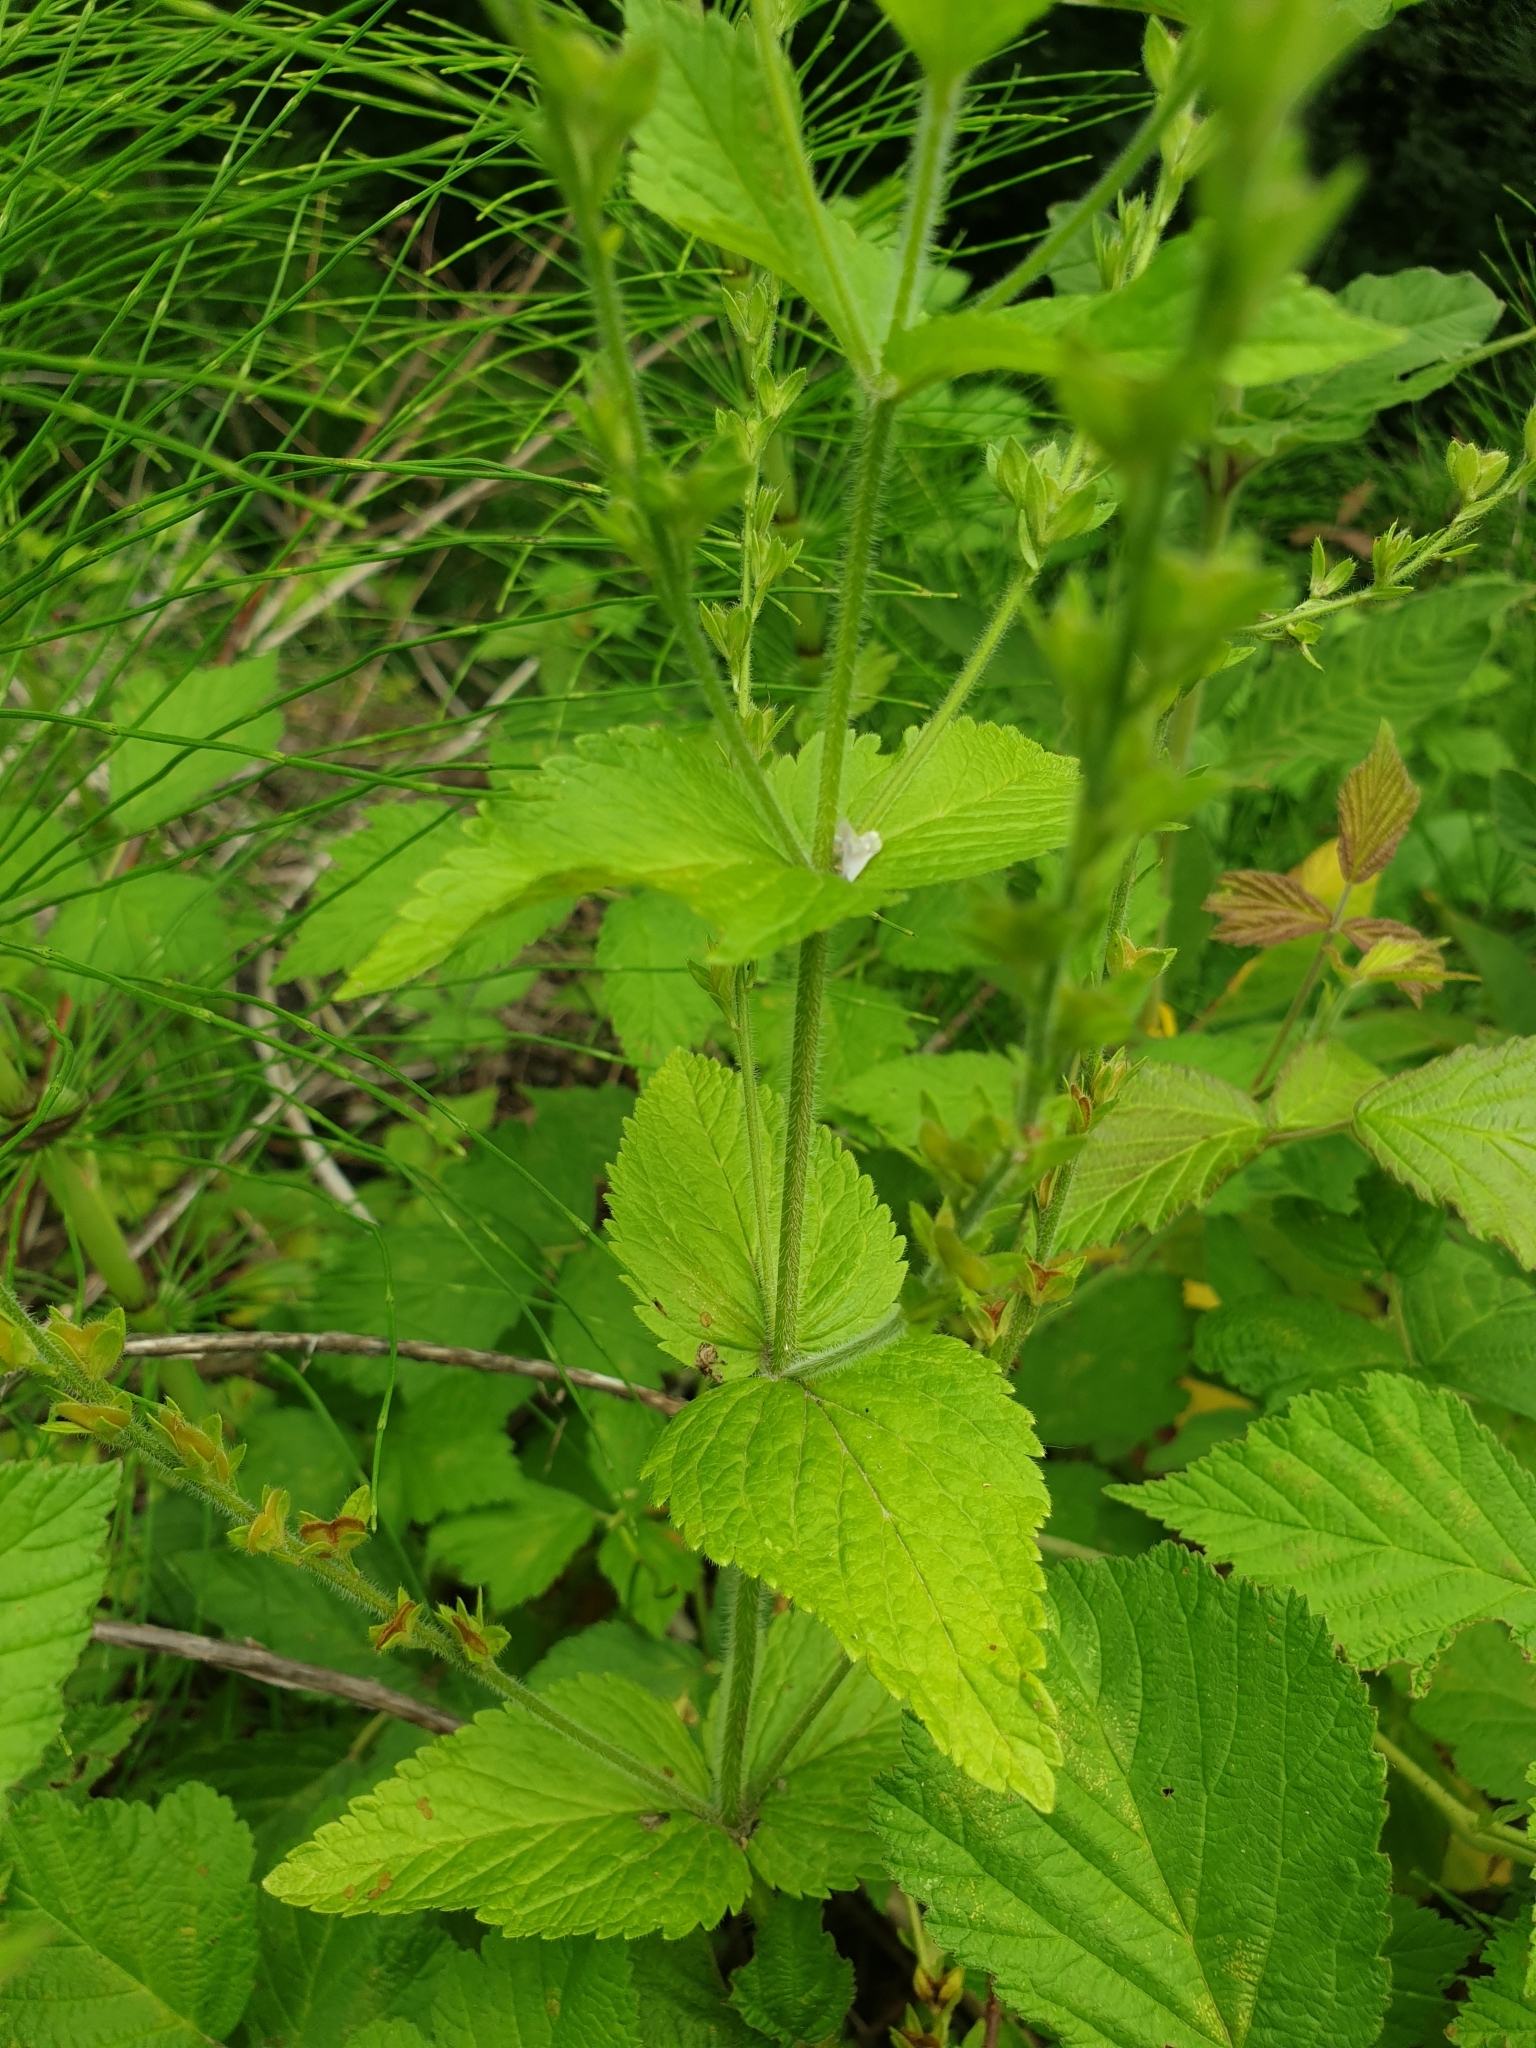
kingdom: Plantae
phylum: Tracheophyta
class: Magnoliopsida
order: Lamiales
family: Plantaginaceae
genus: Veronica
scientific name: Veronica chamaedrys
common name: Germander speedwell
